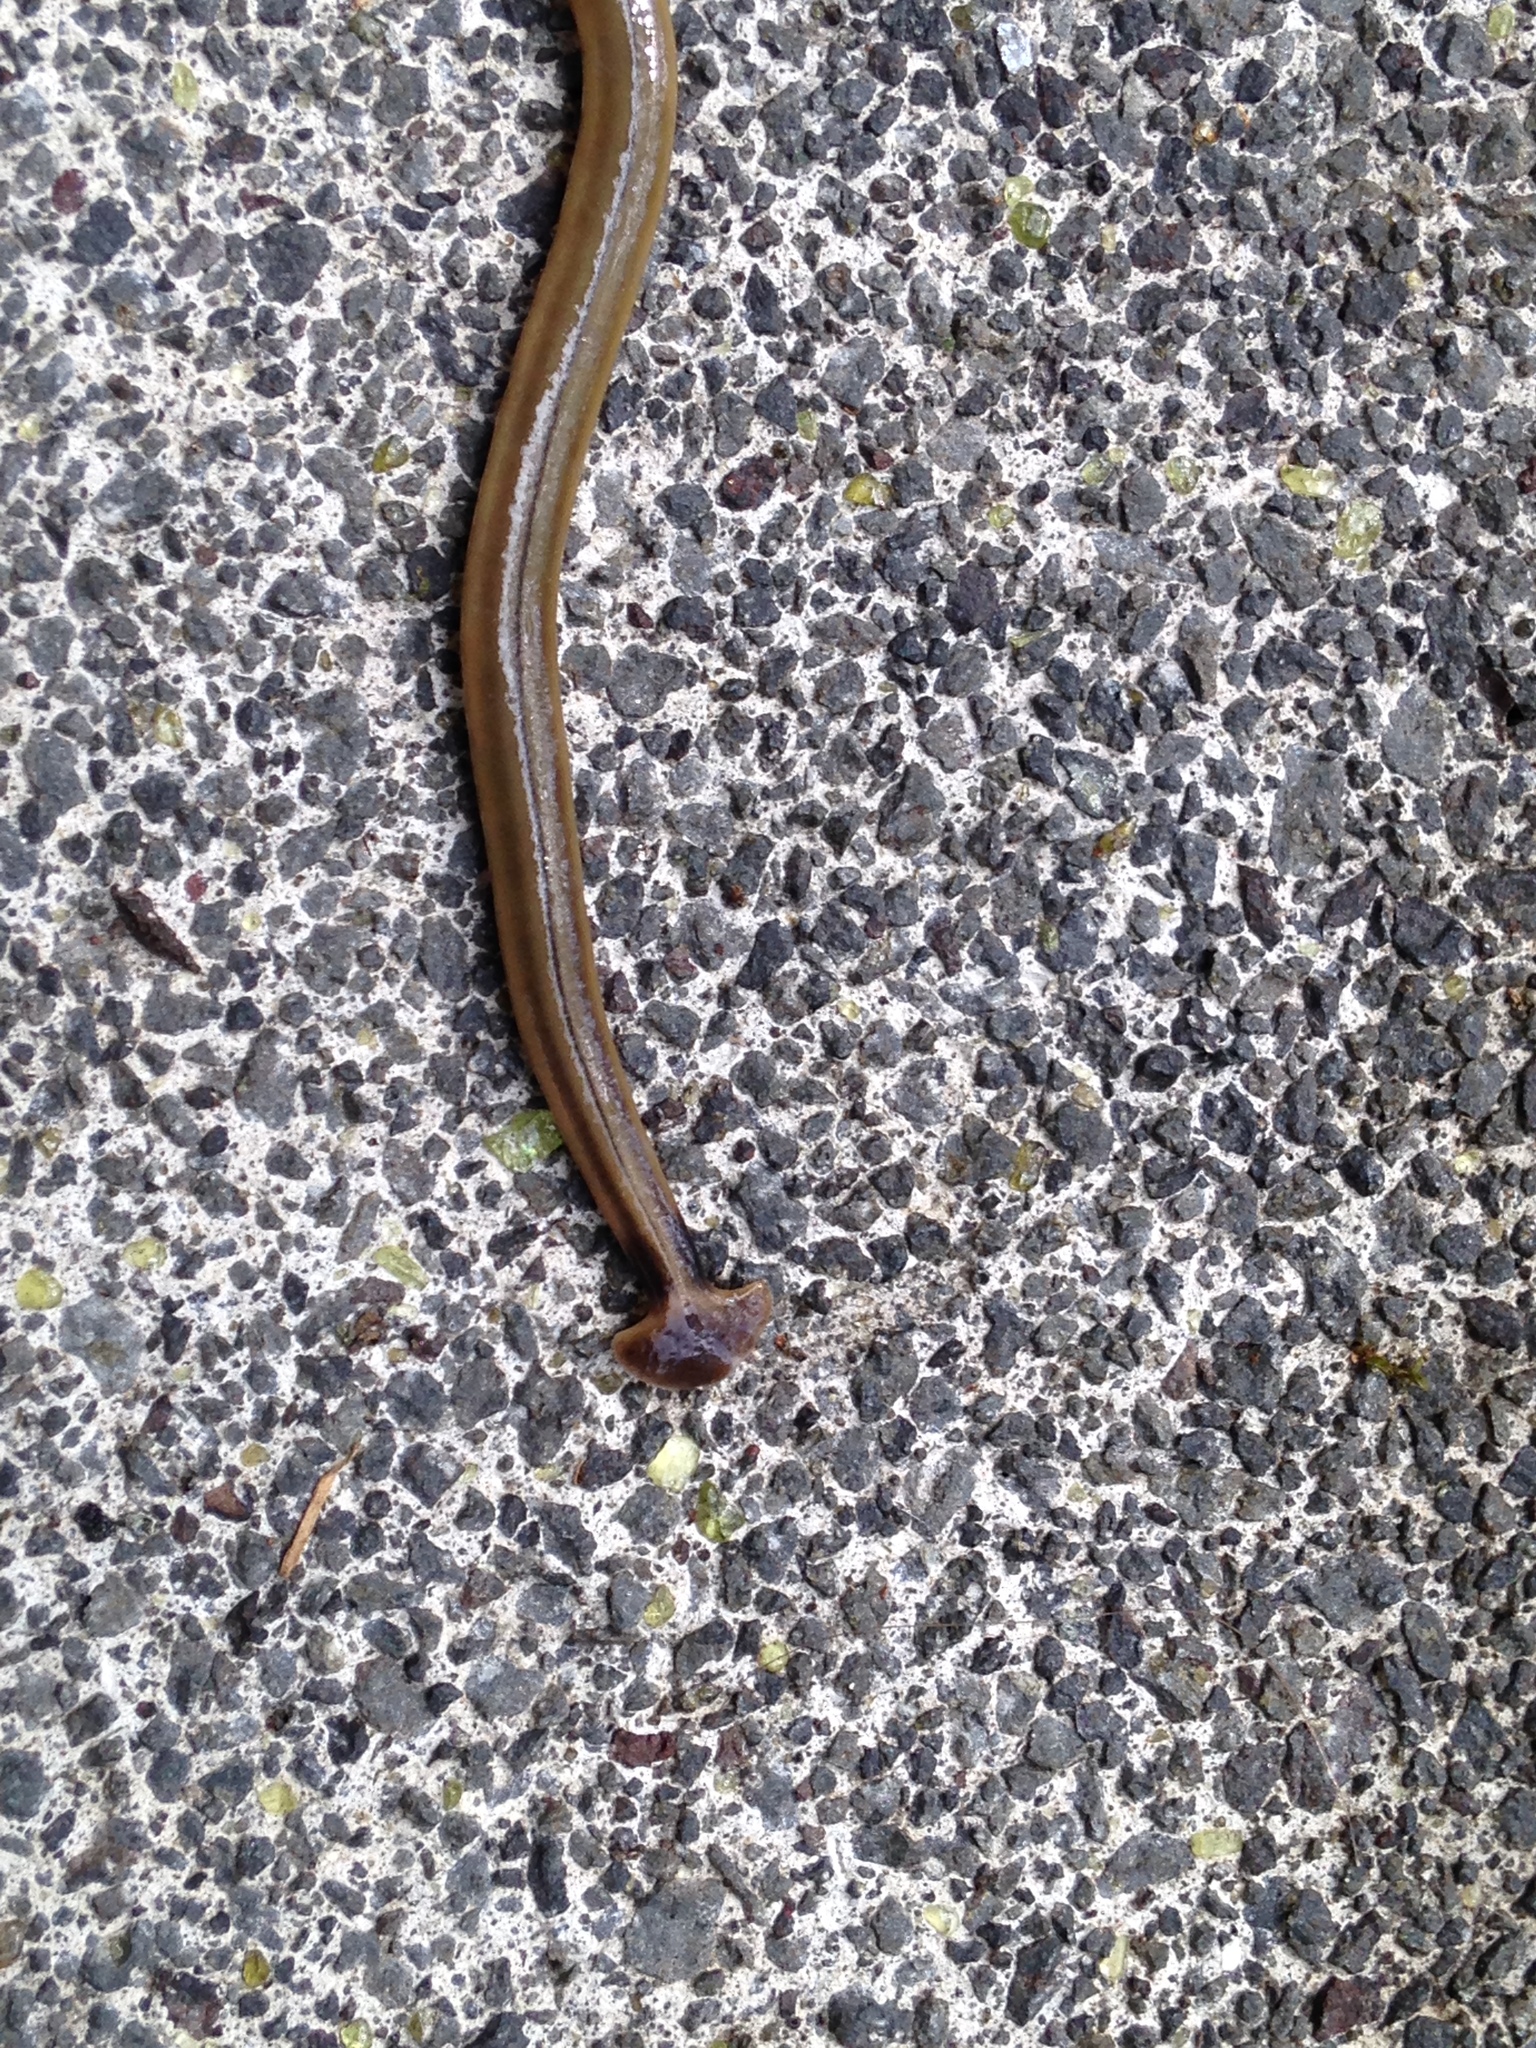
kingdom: Animalia
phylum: Platyhelminthes
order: Tricladida
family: Geoplanidae
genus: Bipalium
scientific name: Bipalium kewense
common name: Hammerhead flatworm
